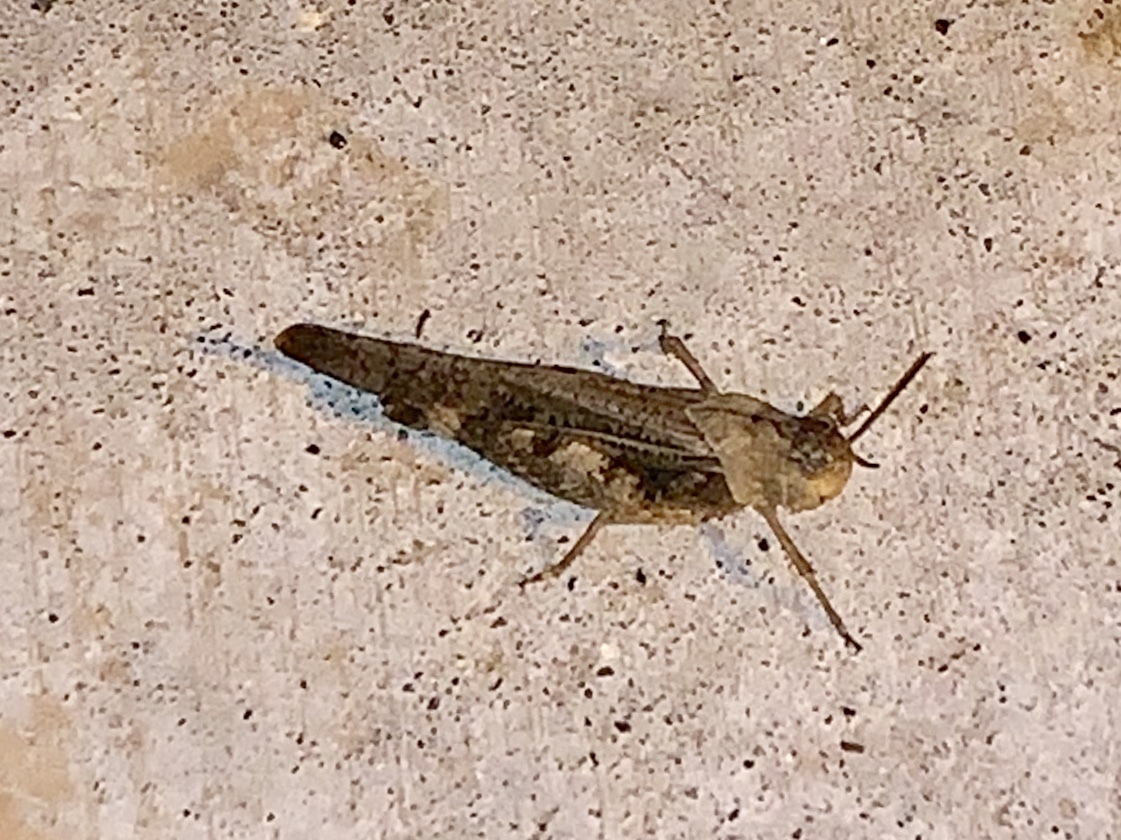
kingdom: Animalia
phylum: Arthropoda
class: Insecta
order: Orthoptera
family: Acrididae
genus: Arphia
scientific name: Arphia simplex
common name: Plains yellow-winged grasshopper
